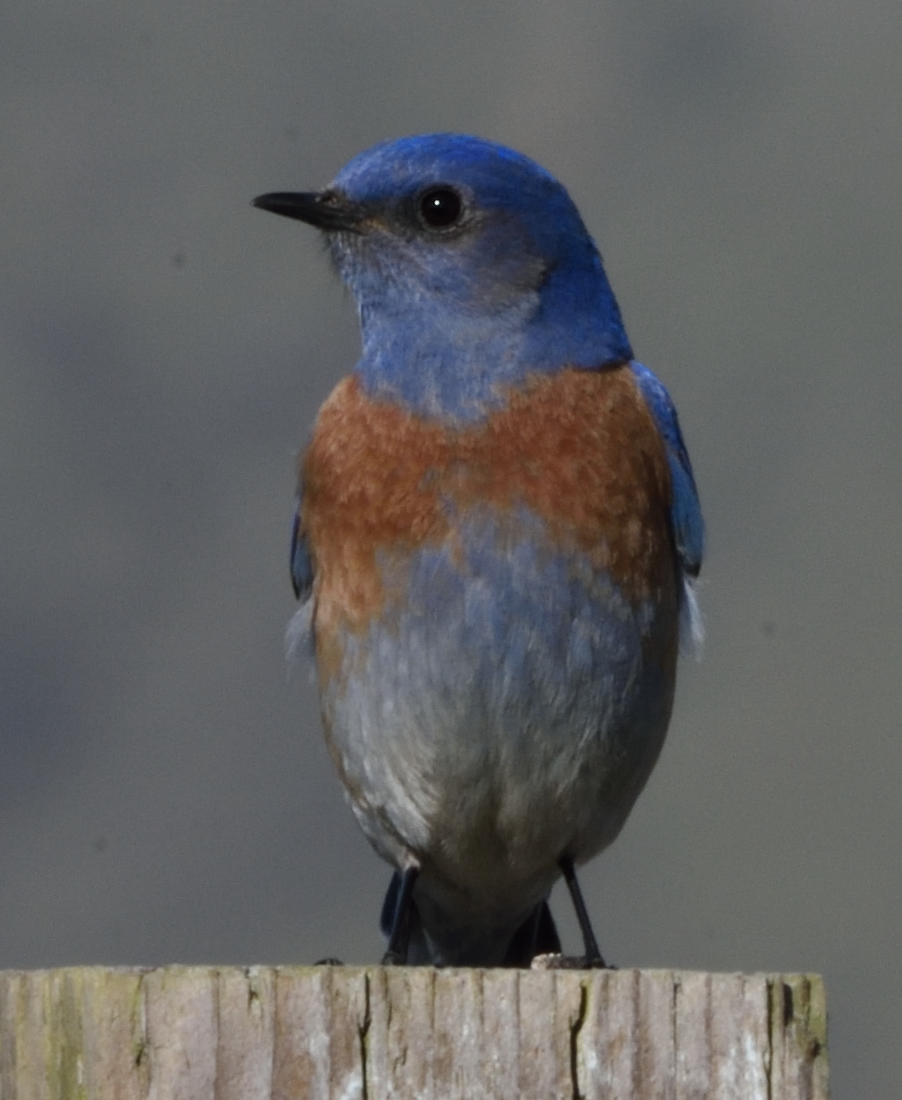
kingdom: Animalia
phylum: Chordata
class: Aves
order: Passeriformes
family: Turdidae
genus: Sialia
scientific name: Sialia mexicana
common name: Western bluebird
